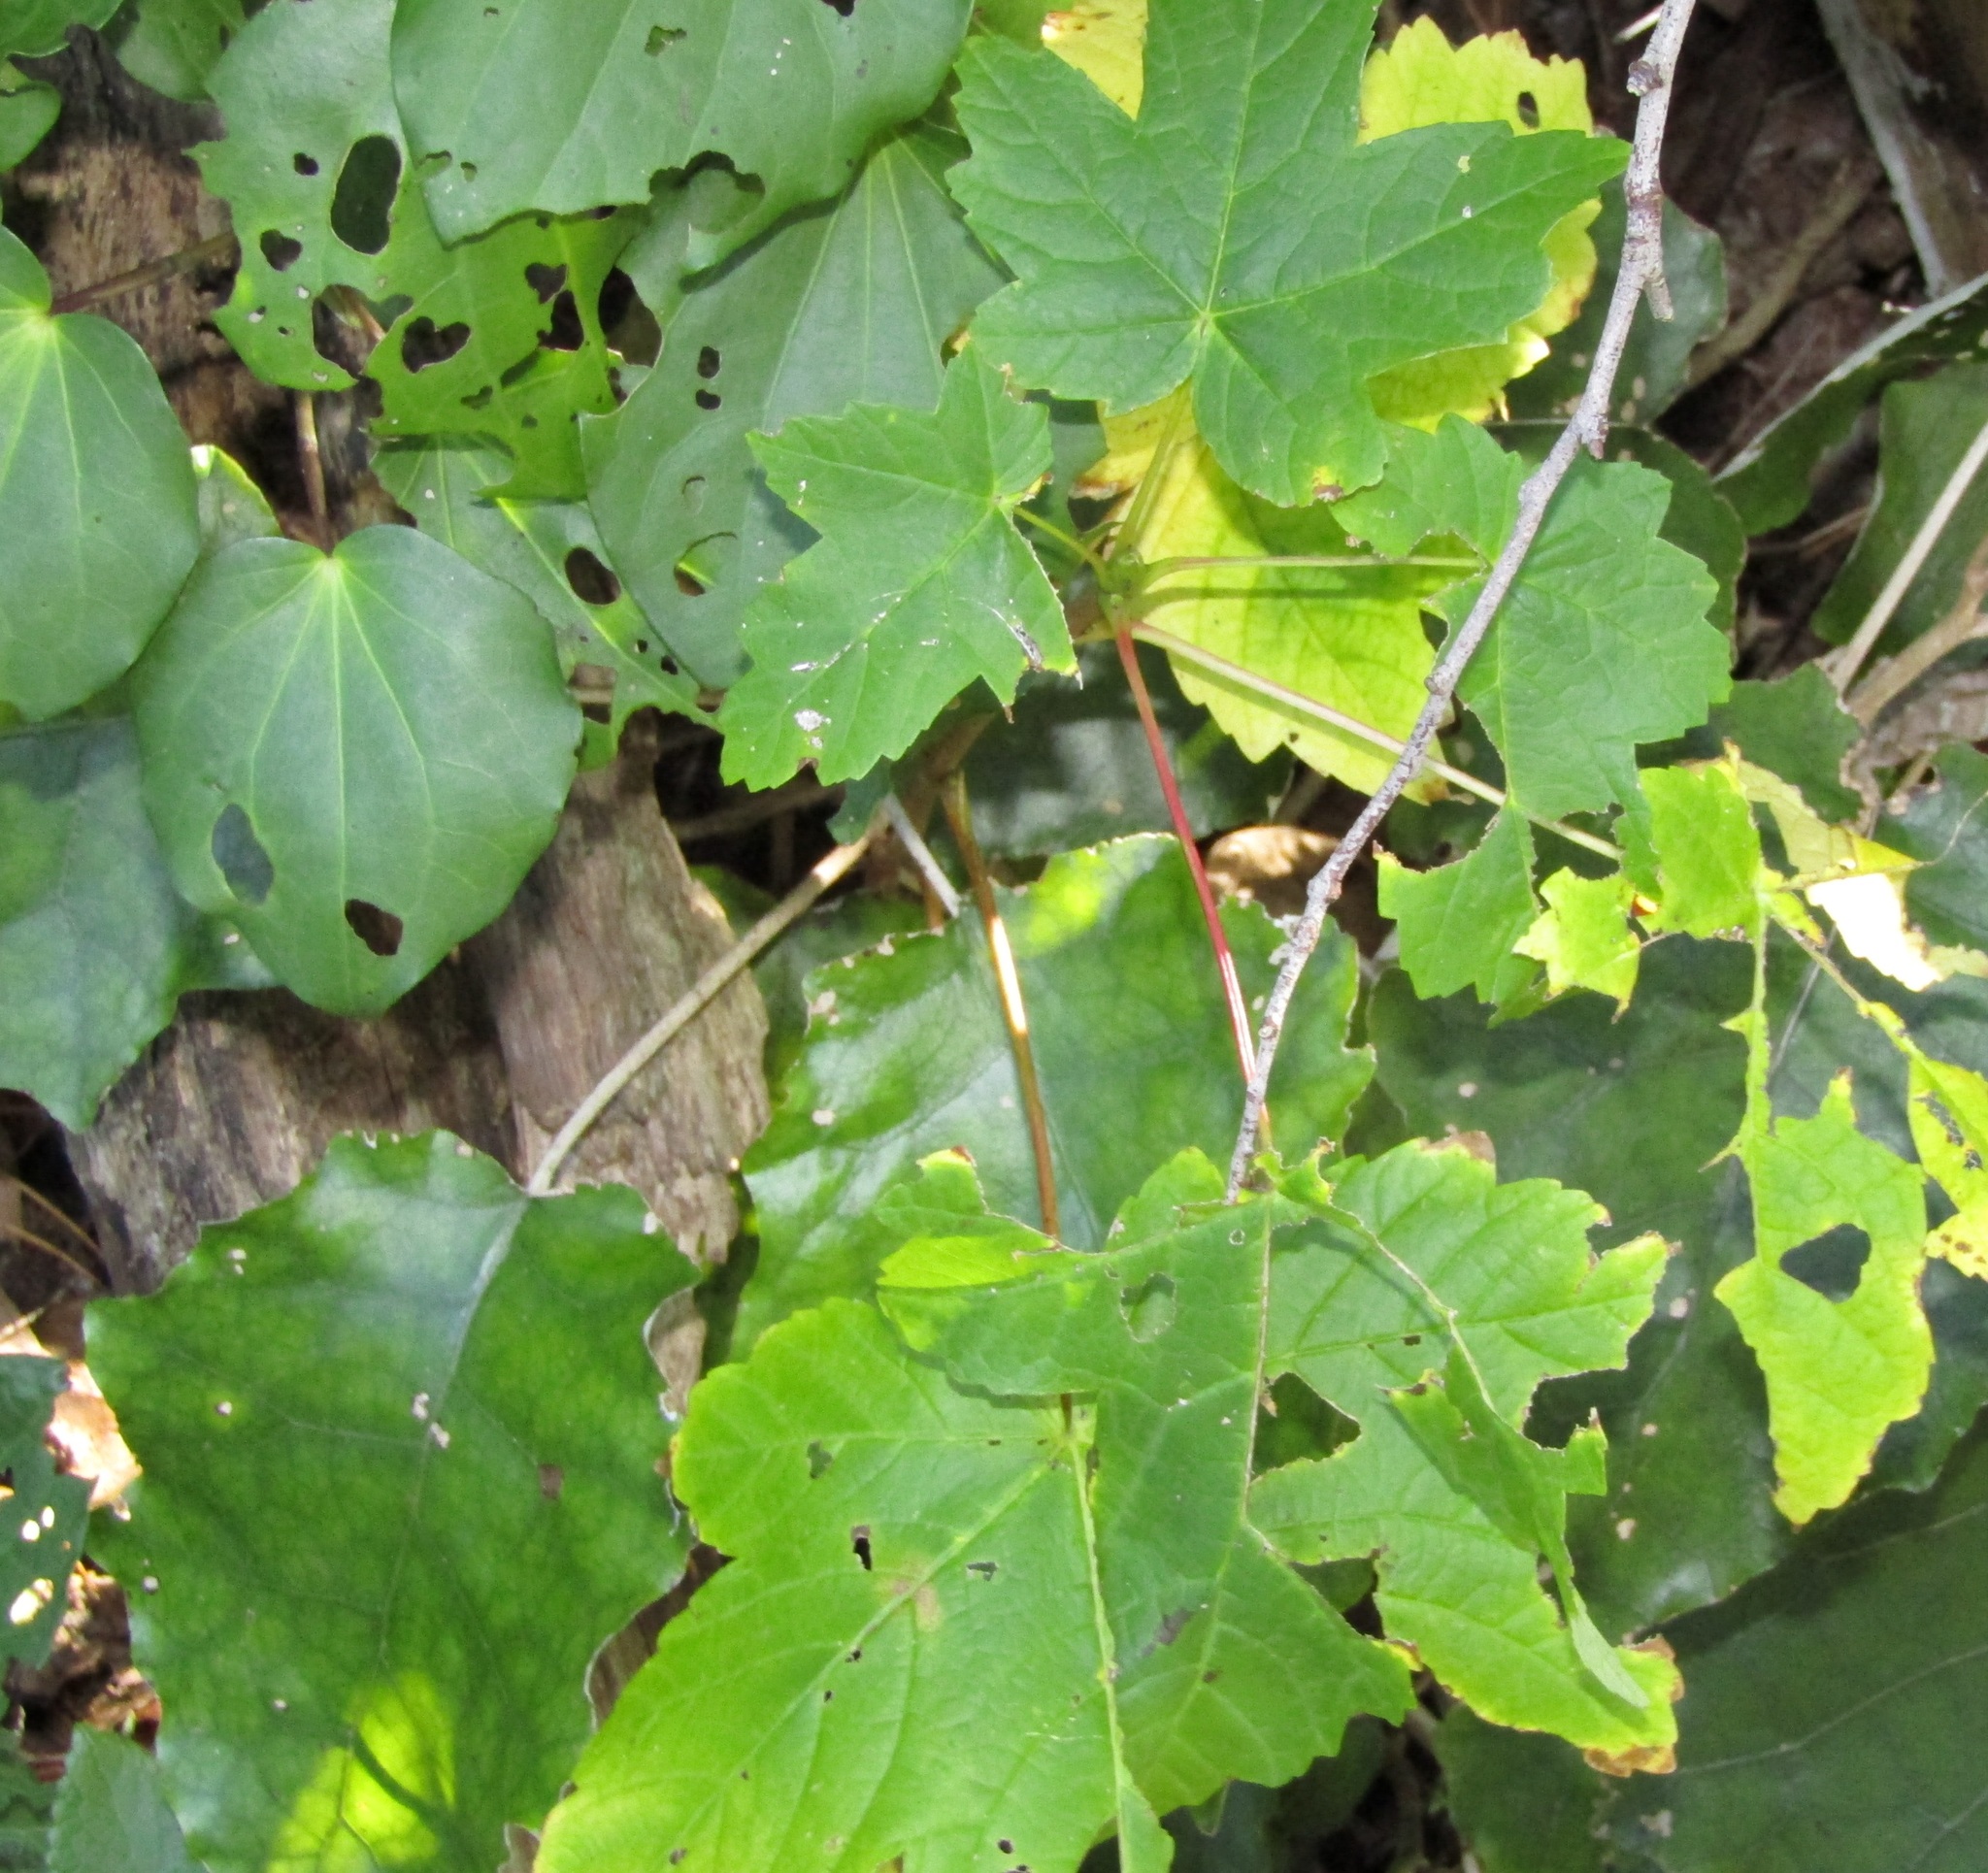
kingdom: Plantae
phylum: Tracheophyta
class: Magnoliopsida
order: Sapindales
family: Sapindaceae
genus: Acer
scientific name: Acer pseudoplatanus
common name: Sycamore
